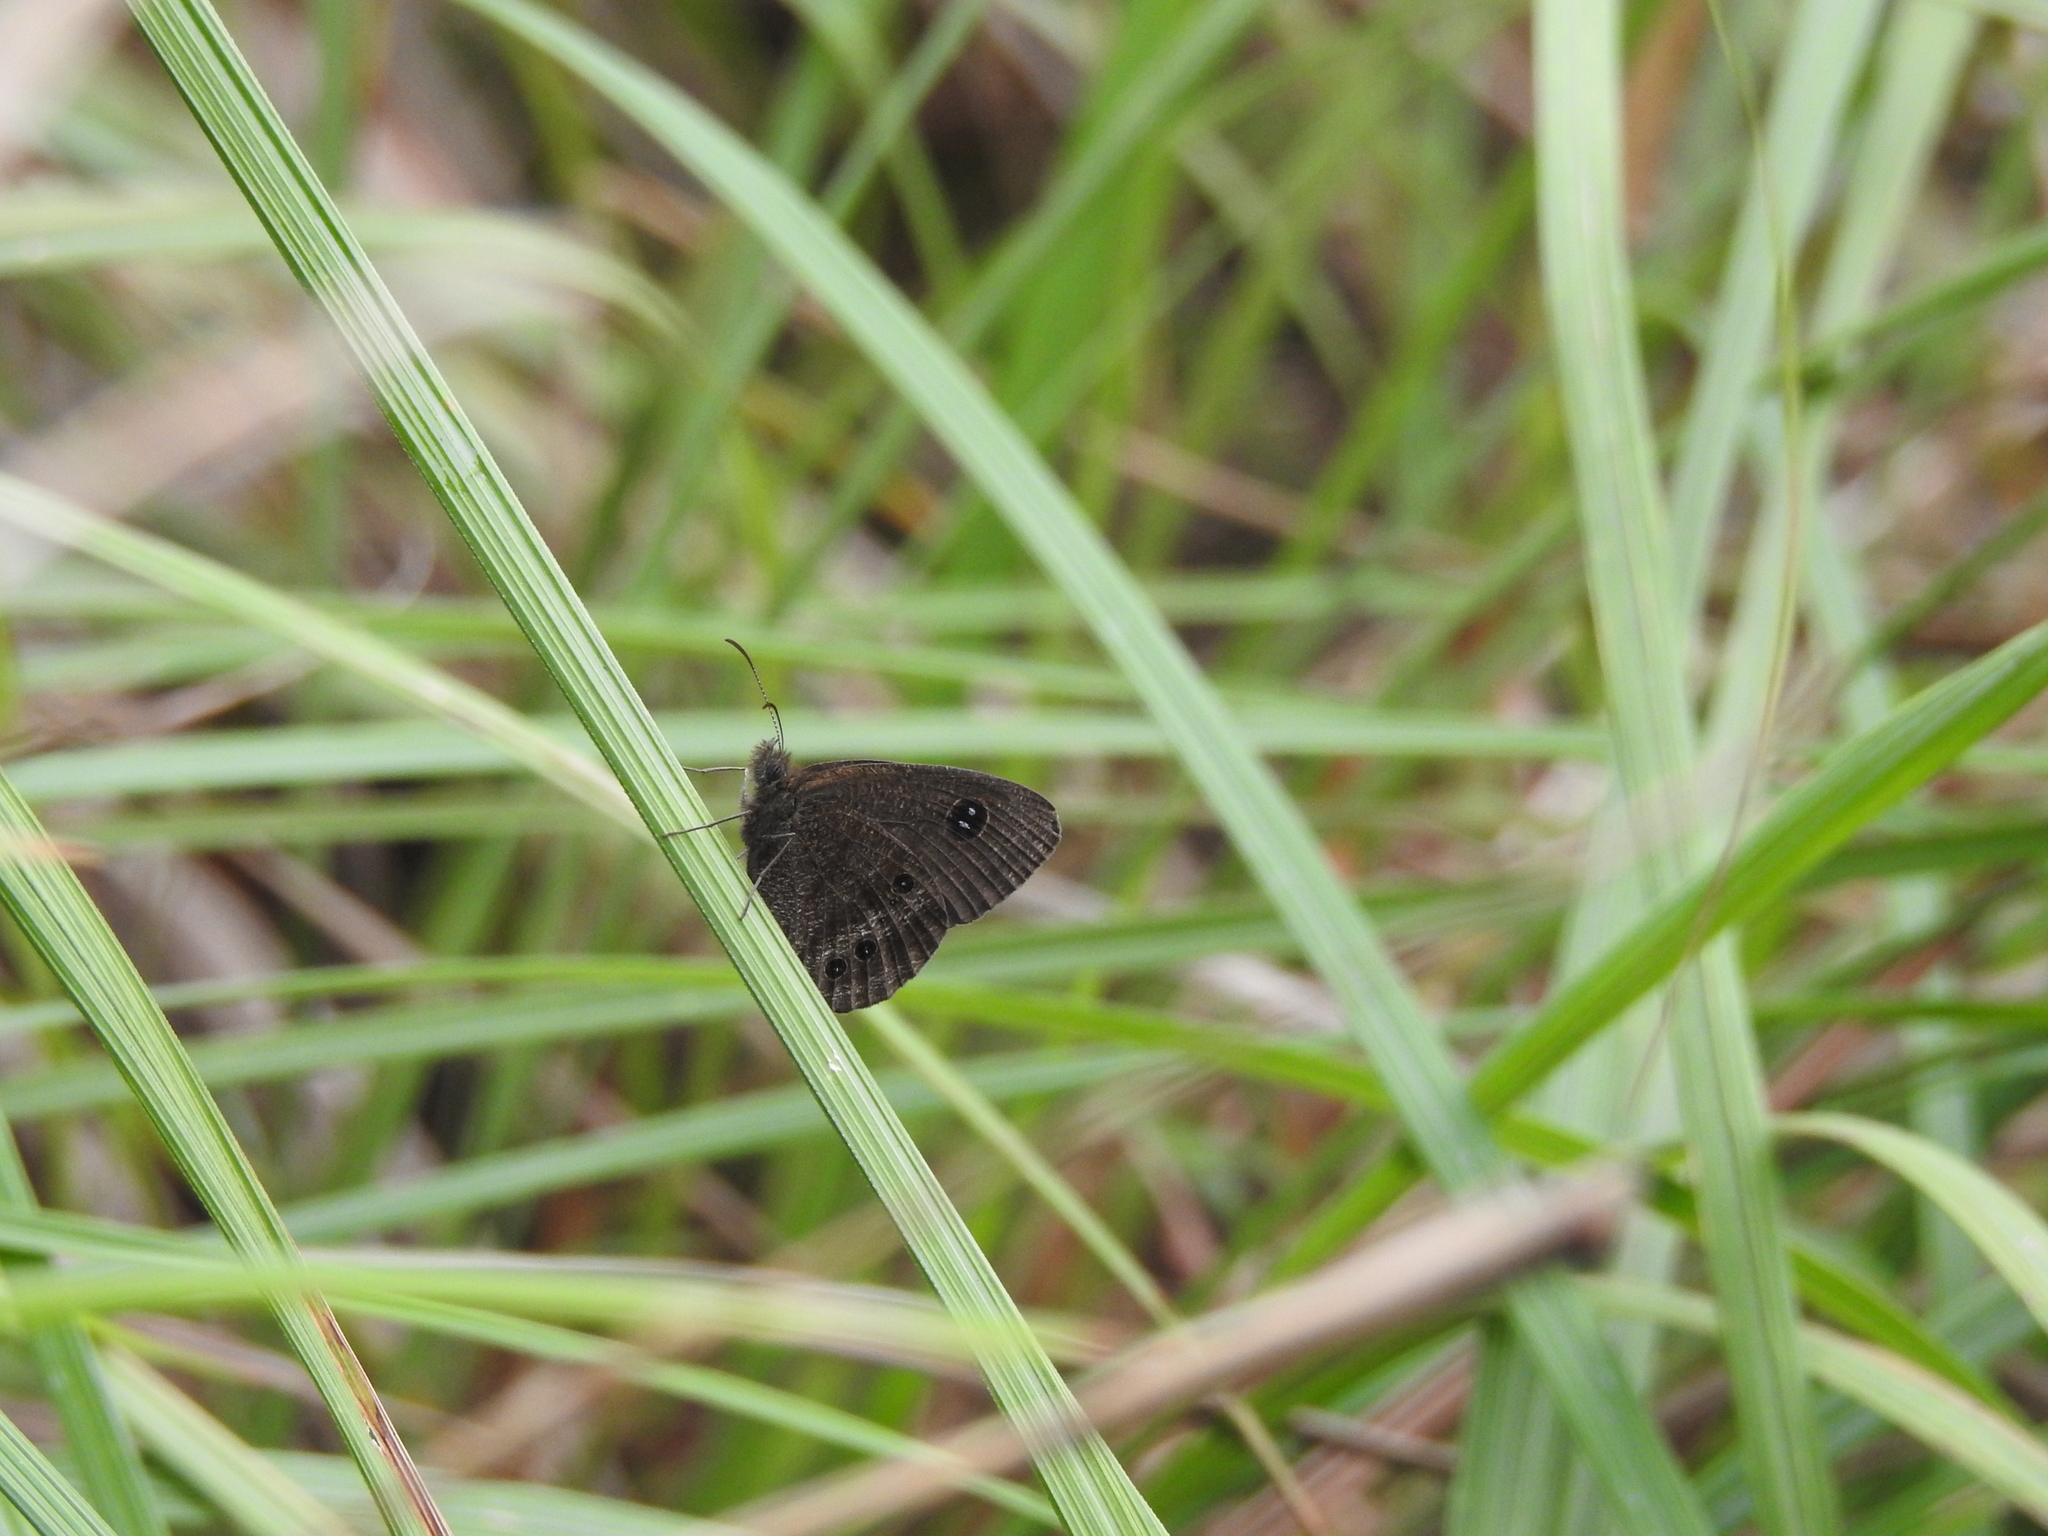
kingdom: Animalia
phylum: Arthropoda
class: Insecta
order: Lepidoptera
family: Nymphalidae
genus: Ypthima
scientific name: Ypthima ypthimoides
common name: Palni four-ring
